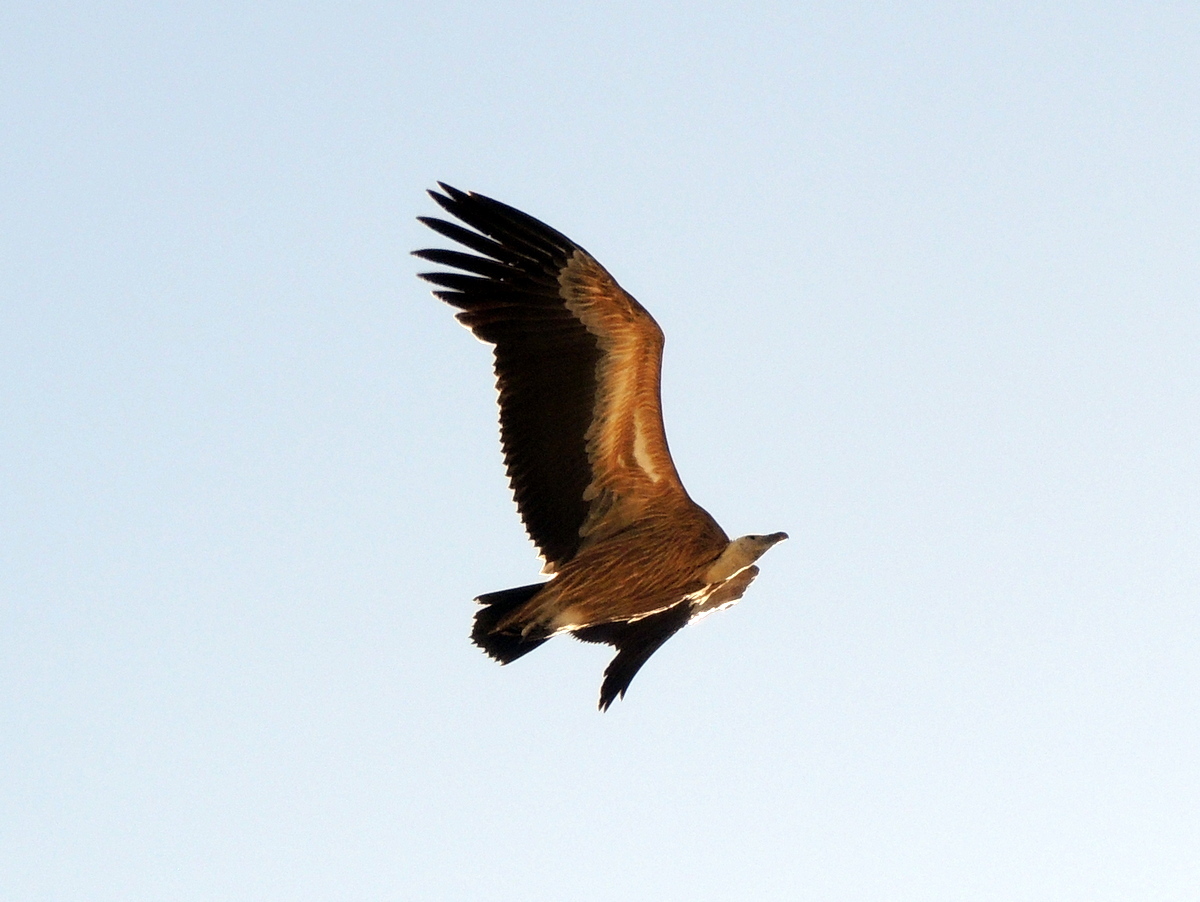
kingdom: Animalia
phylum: Chordata
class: Aves
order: Accipitriformes
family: Accipitridae
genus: Gyps
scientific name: Gyps fulvus
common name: Griffon vulture
